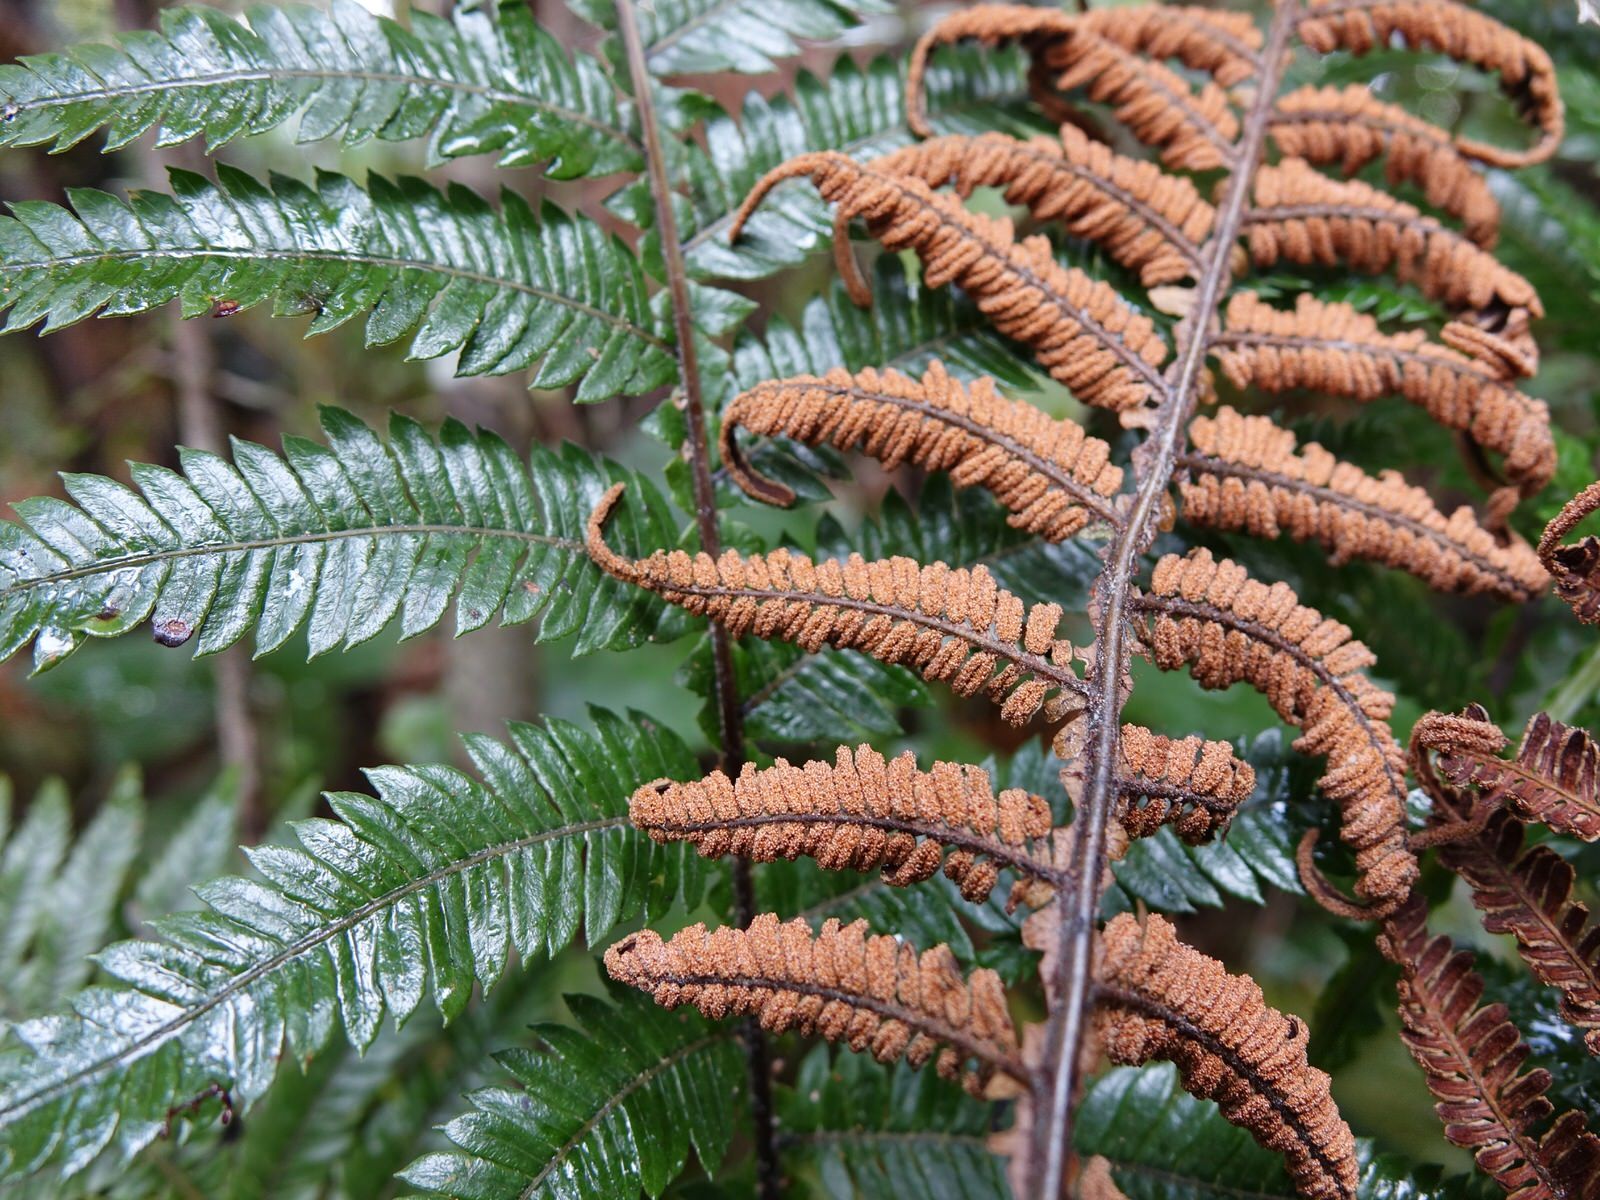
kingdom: Plantae
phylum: Tracheophyta
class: Polypodiopsida
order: Polypodiales
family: Blechnaceae
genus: Diploblechnum
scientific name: Diploblechnum fraseri
